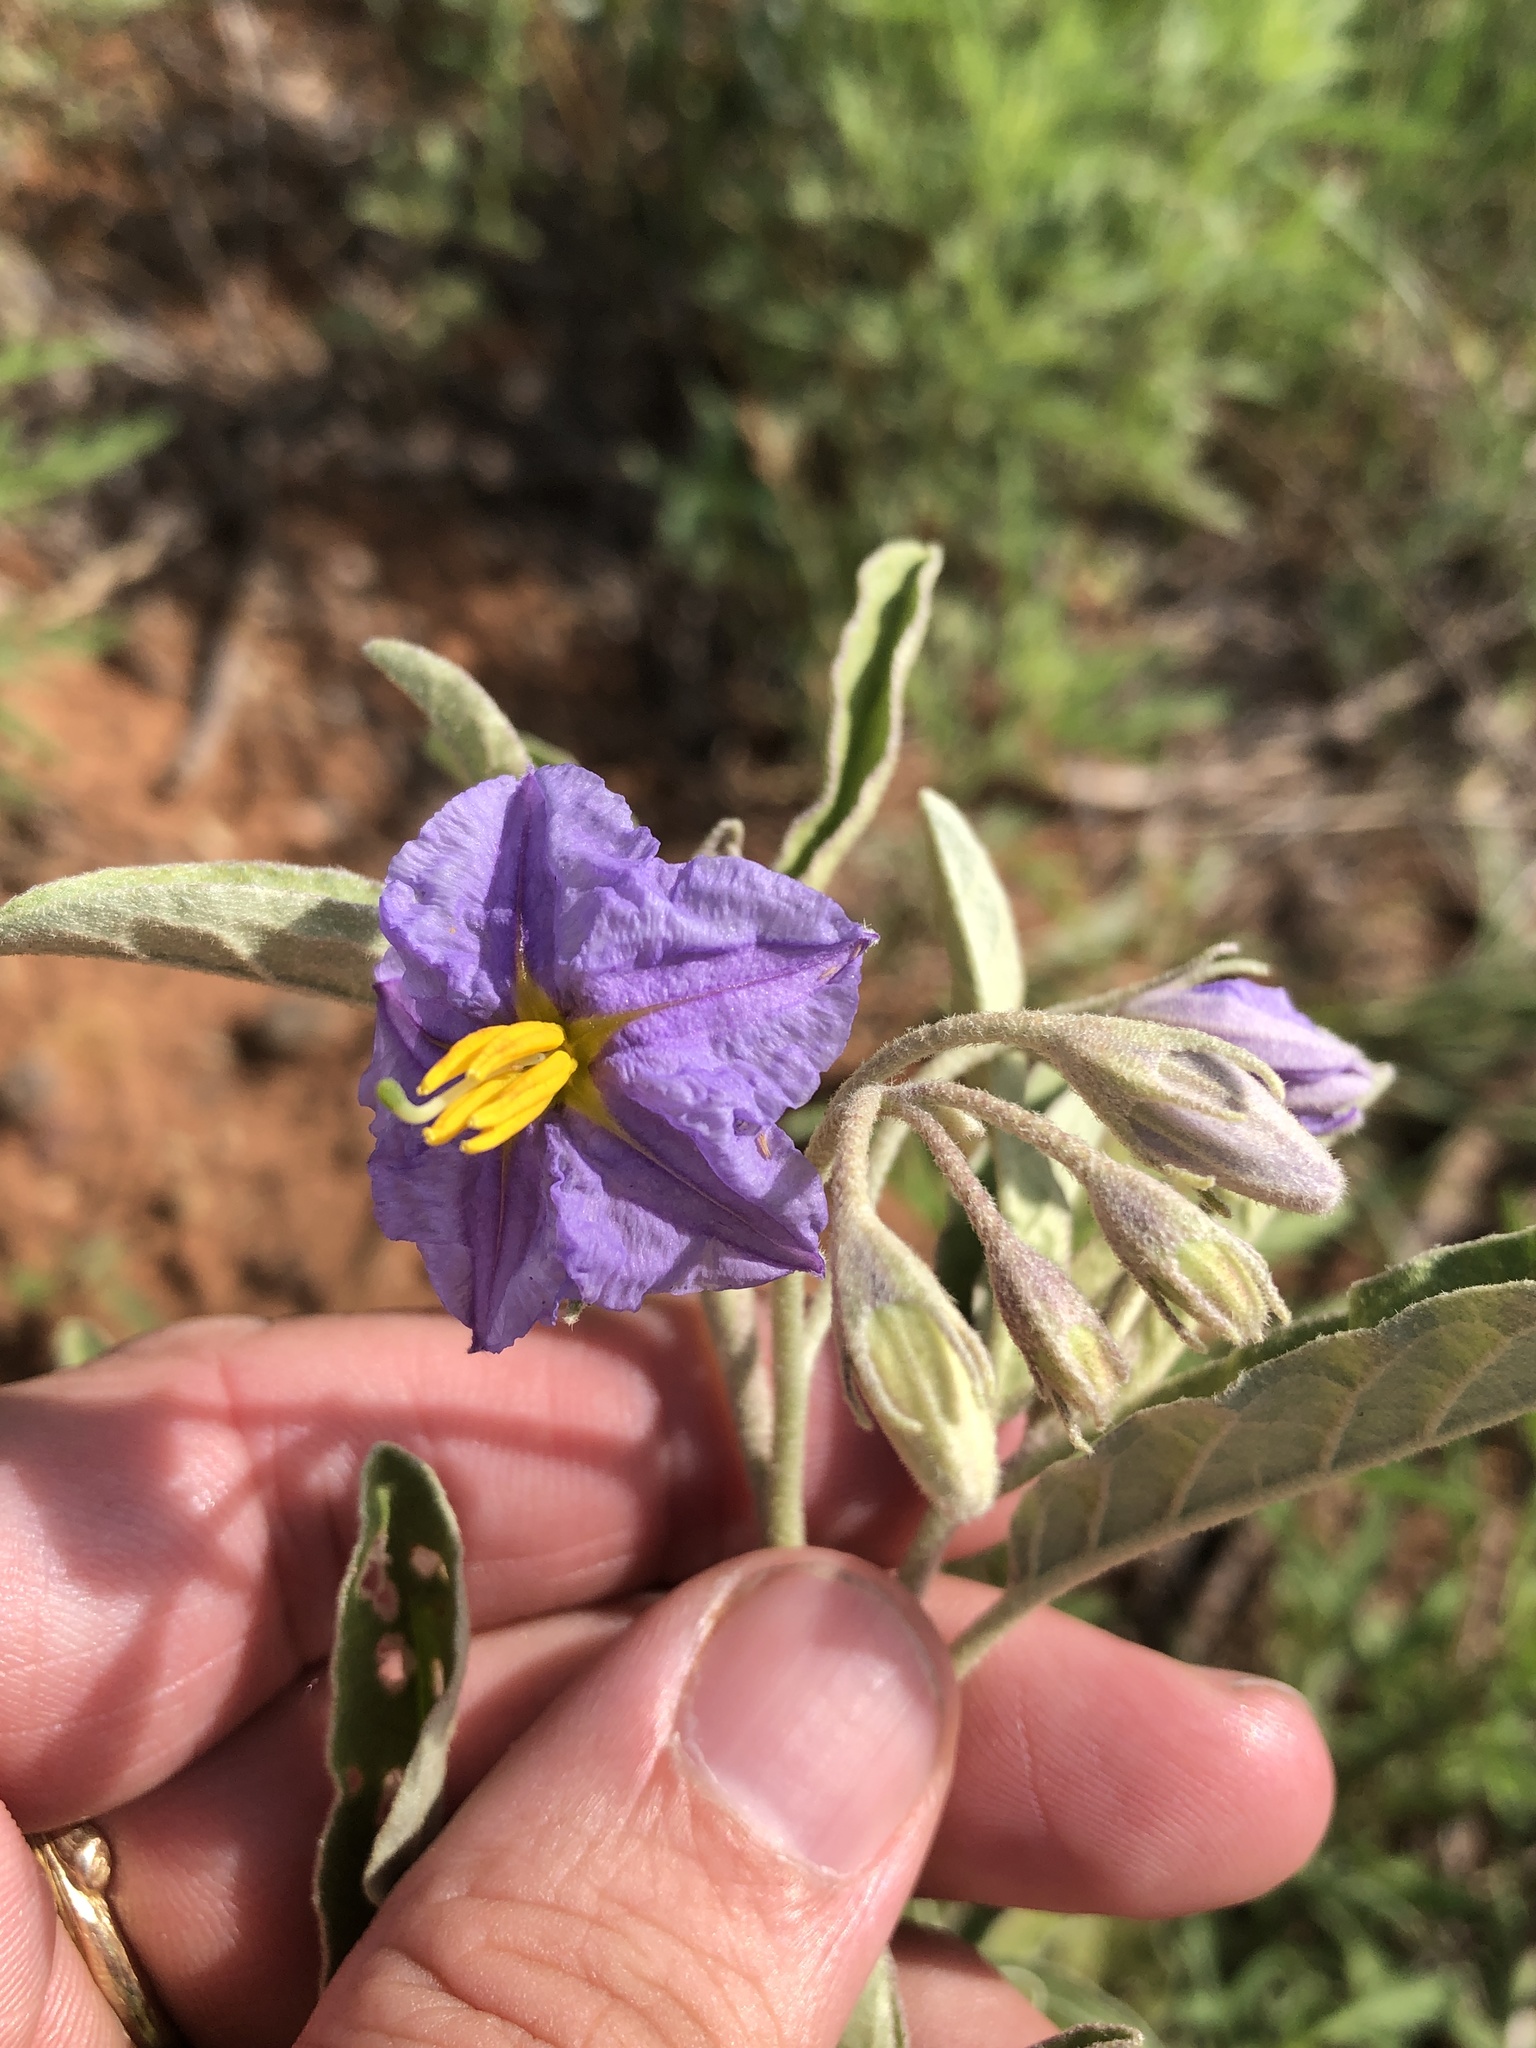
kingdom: Plantae
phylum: Tracheophyta
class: Magnoliopsida
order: Solanales
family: Solanaceae
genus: Solanum
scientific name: Solanum elaeagnifolium
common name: Silverleaf nightshade
